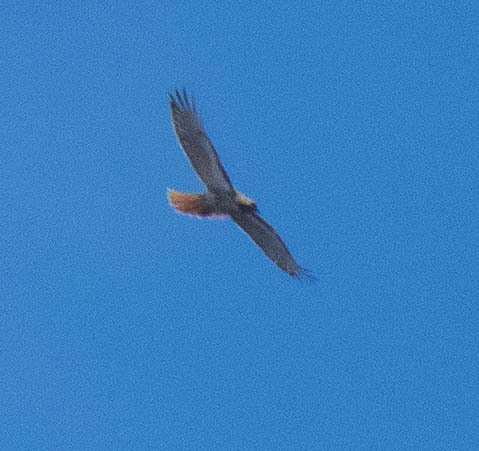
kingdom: Animalia
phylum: Chordata
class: Aves
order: Accipitriformes
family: Accipitridae
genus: Buteo
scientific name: Buteo jamaicensis
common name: Red-tailed hawk
